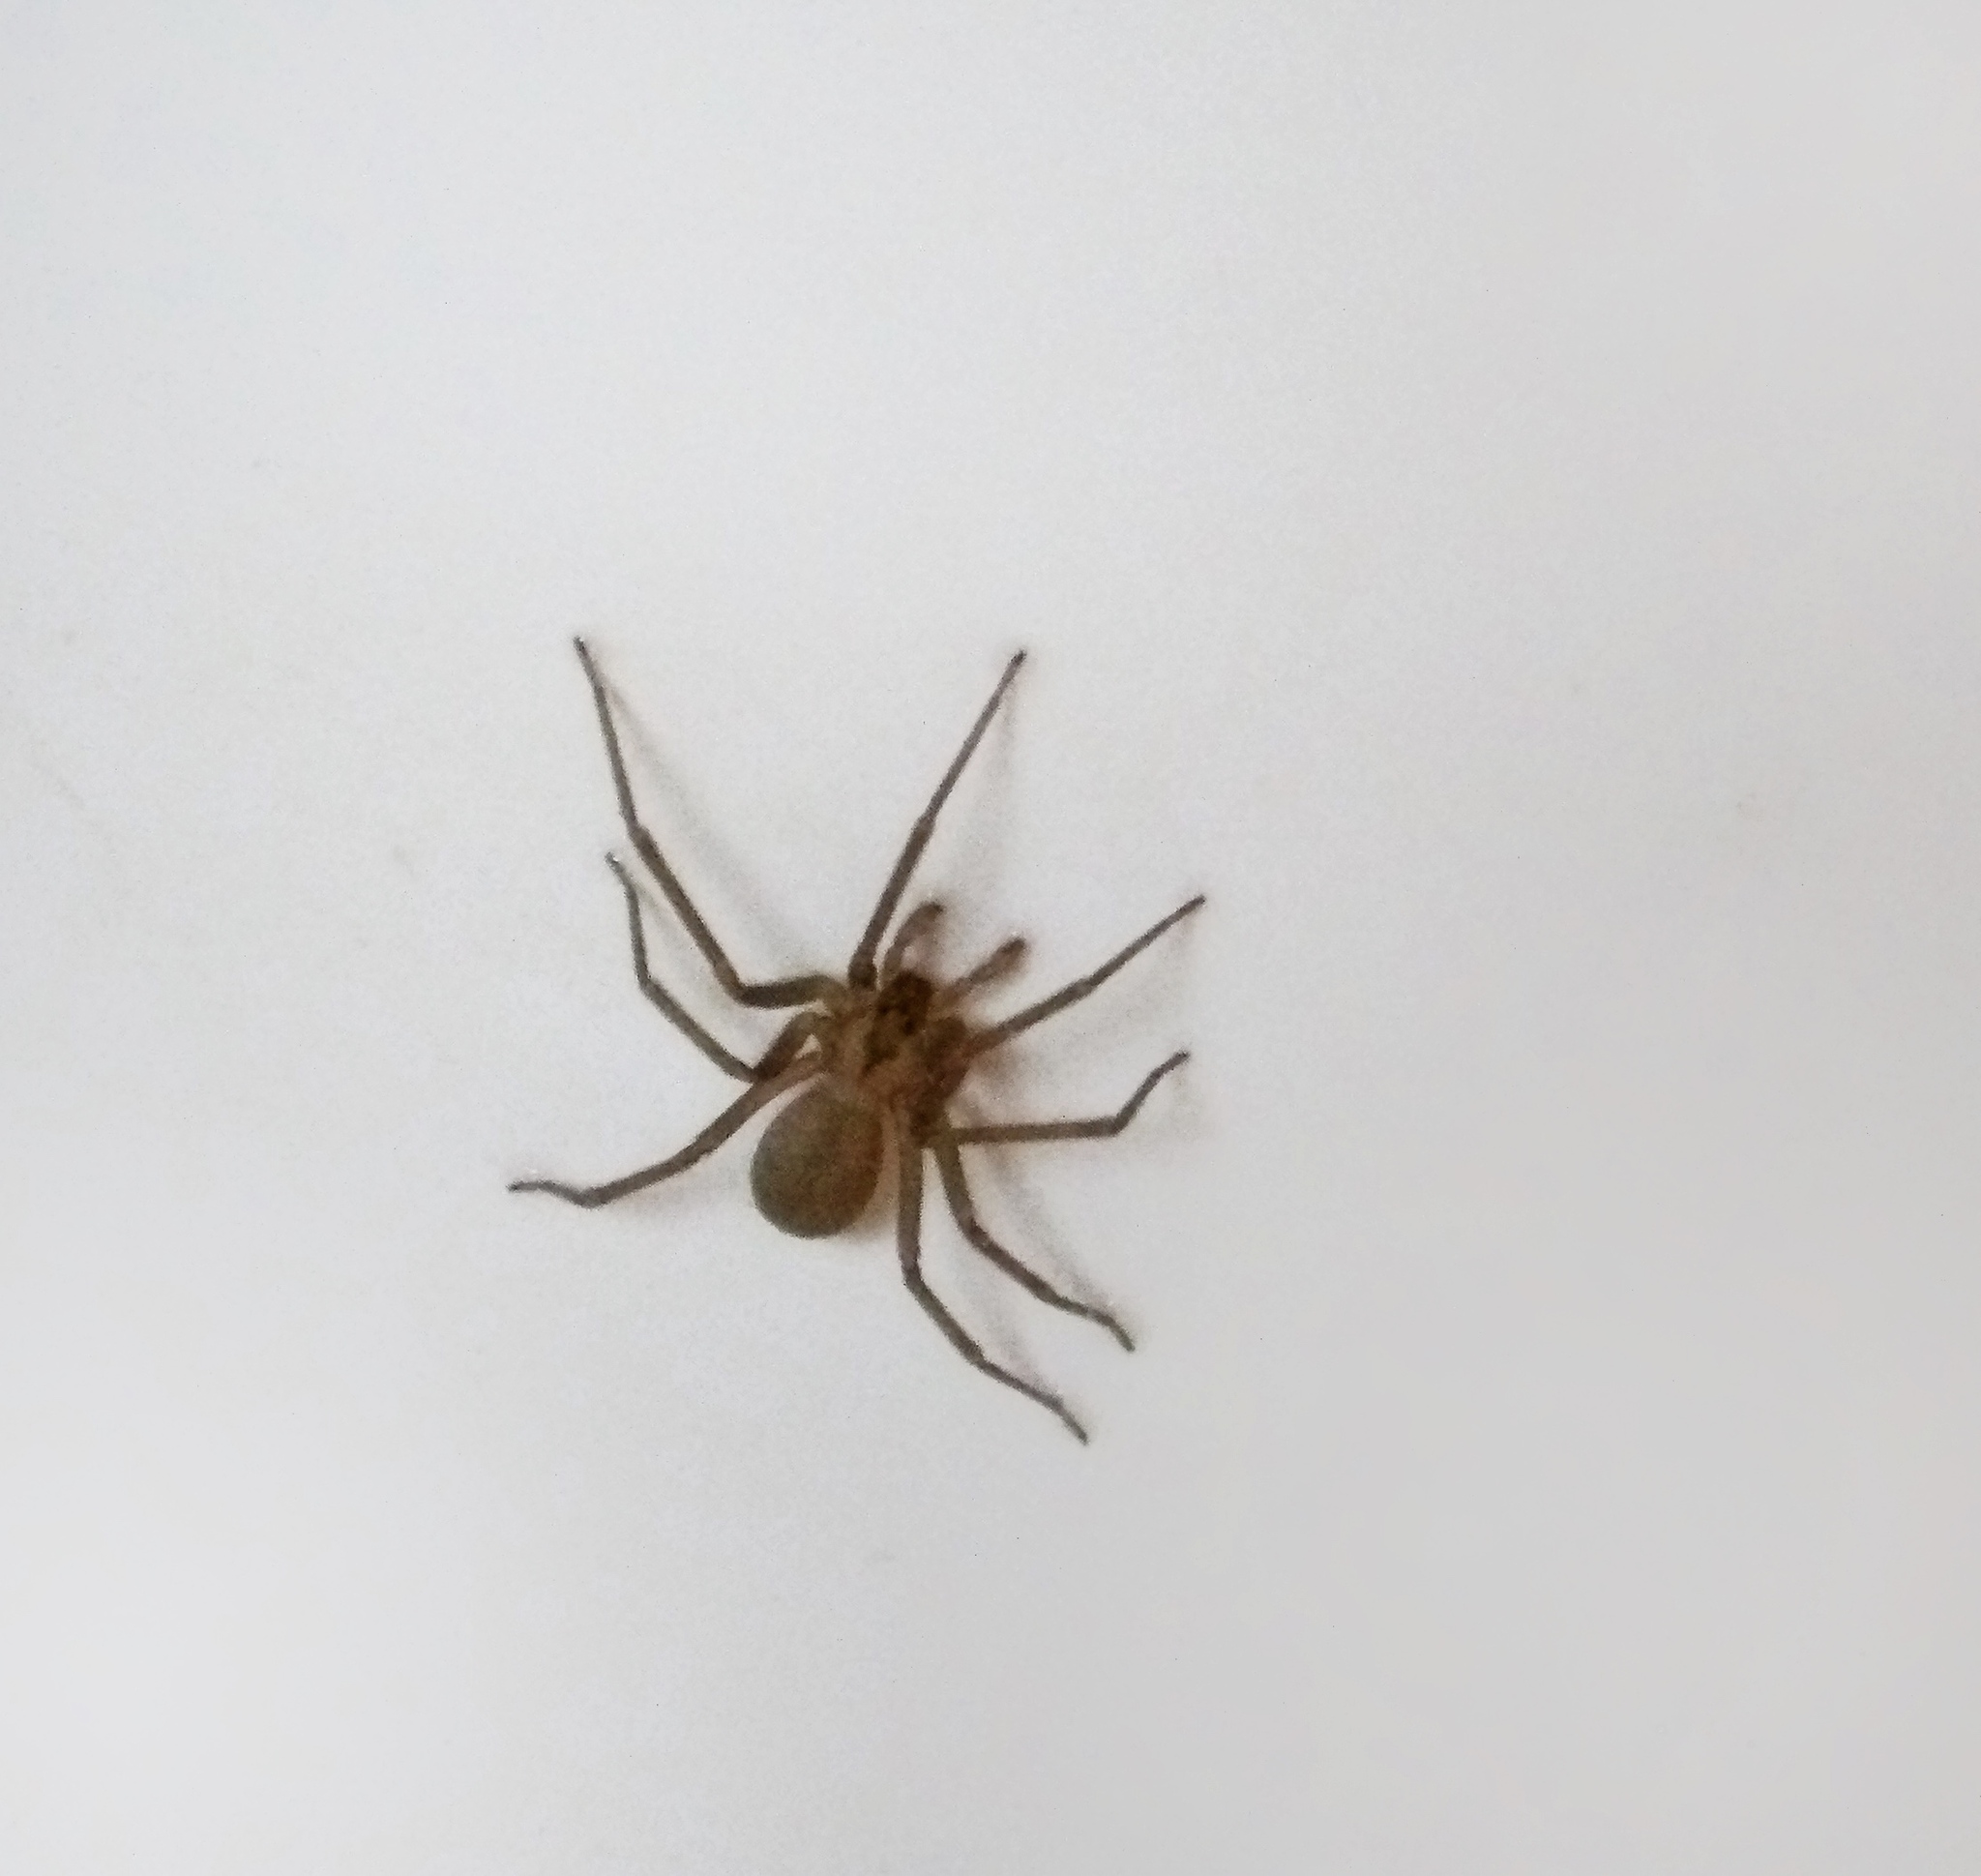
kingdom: Animalia
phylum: Arthropoda
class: Arachnida
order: Araneae
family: Sicariidae
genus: Loxosceles
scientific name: Loxosceles reclusa
